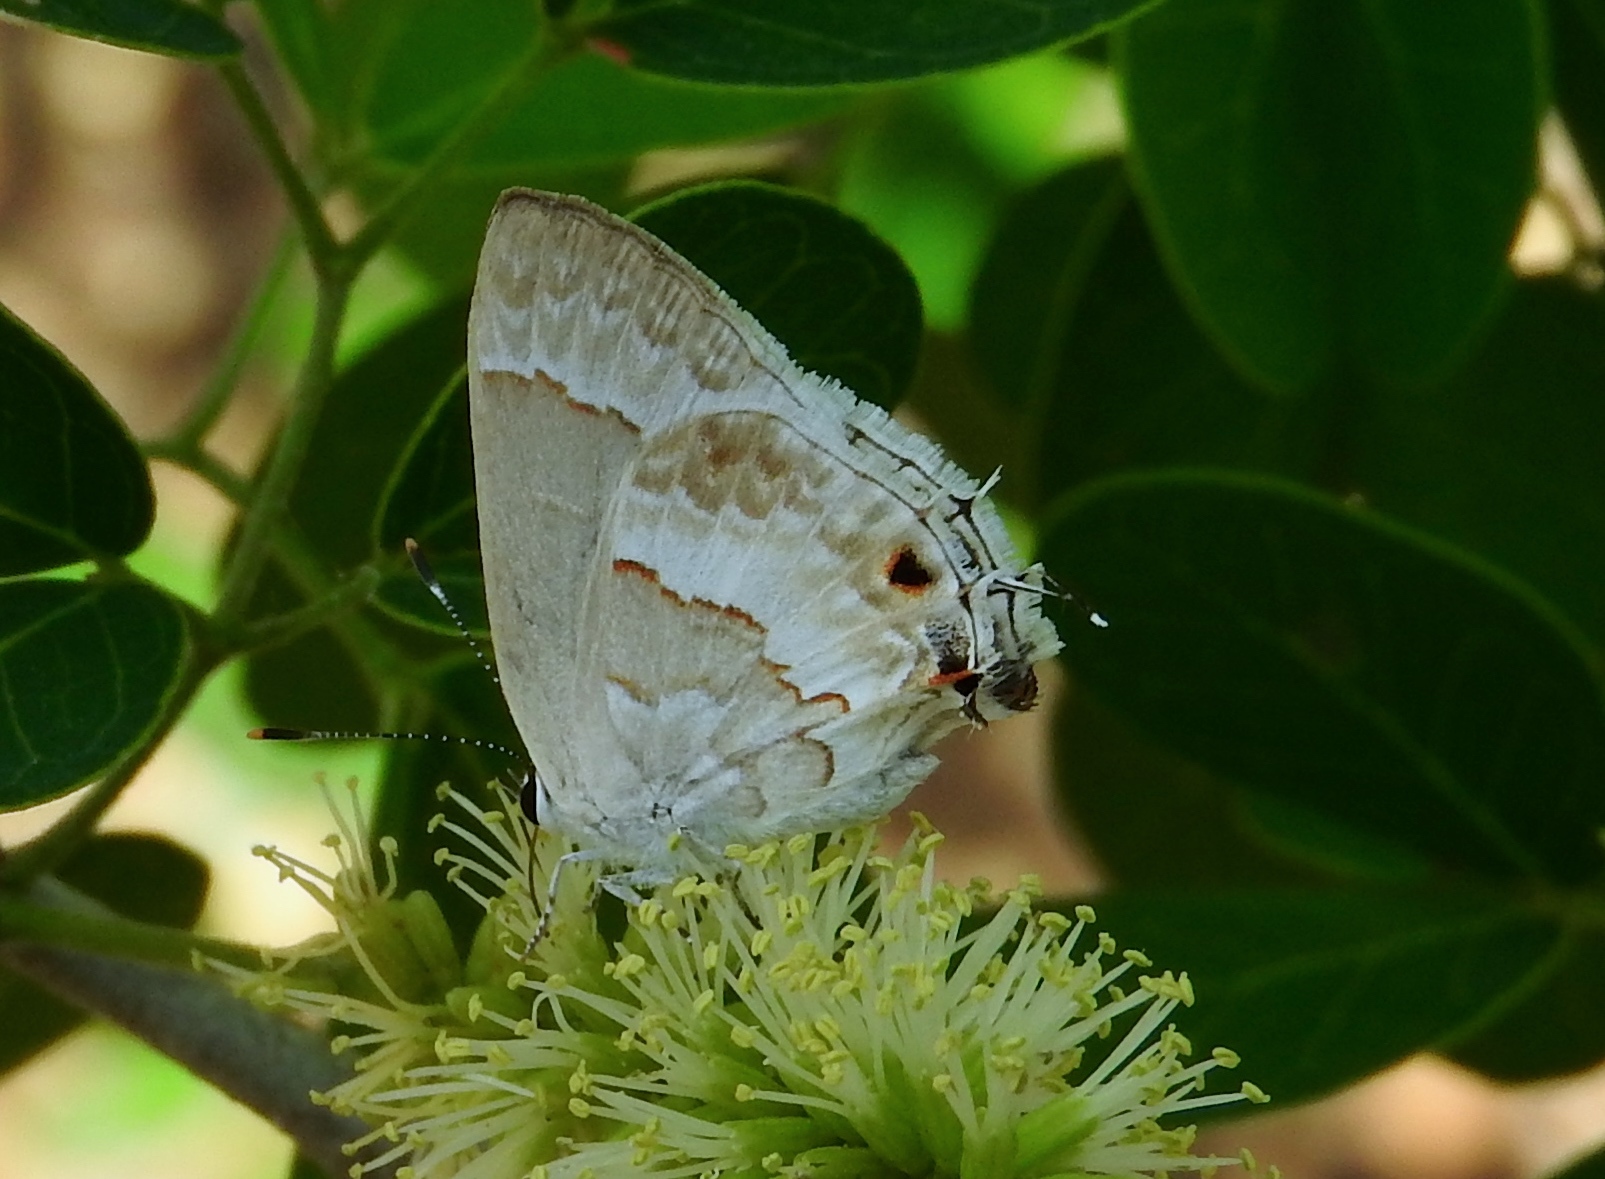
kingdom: Animalia
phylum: Arthropoda
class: Insecta
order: Lepidoptera
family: Lycaenidae
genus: Strymon
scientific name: Strymon albata
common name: White scrub-hairstreak
